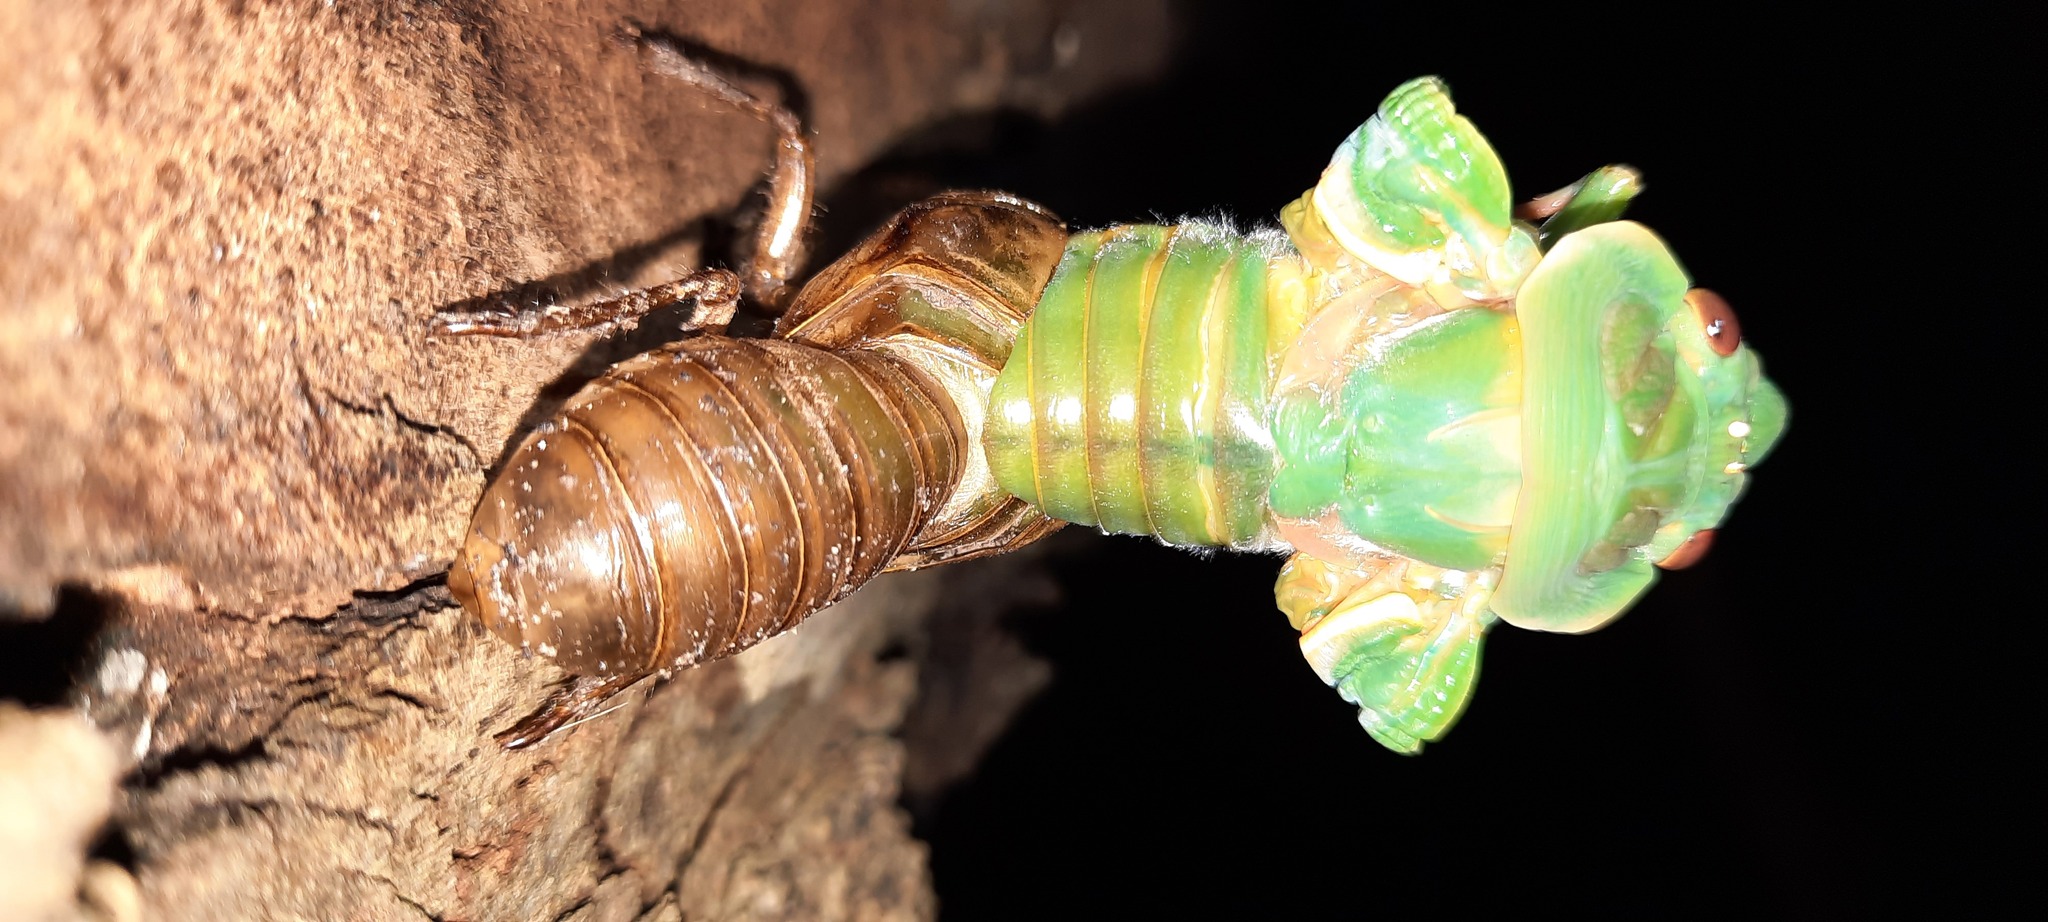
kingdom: Animalia
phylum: Arthropoda
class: Insecta
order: Hemiptera
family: Cicadidae
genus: Cyclochila
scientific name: Cyclochila australasiae
